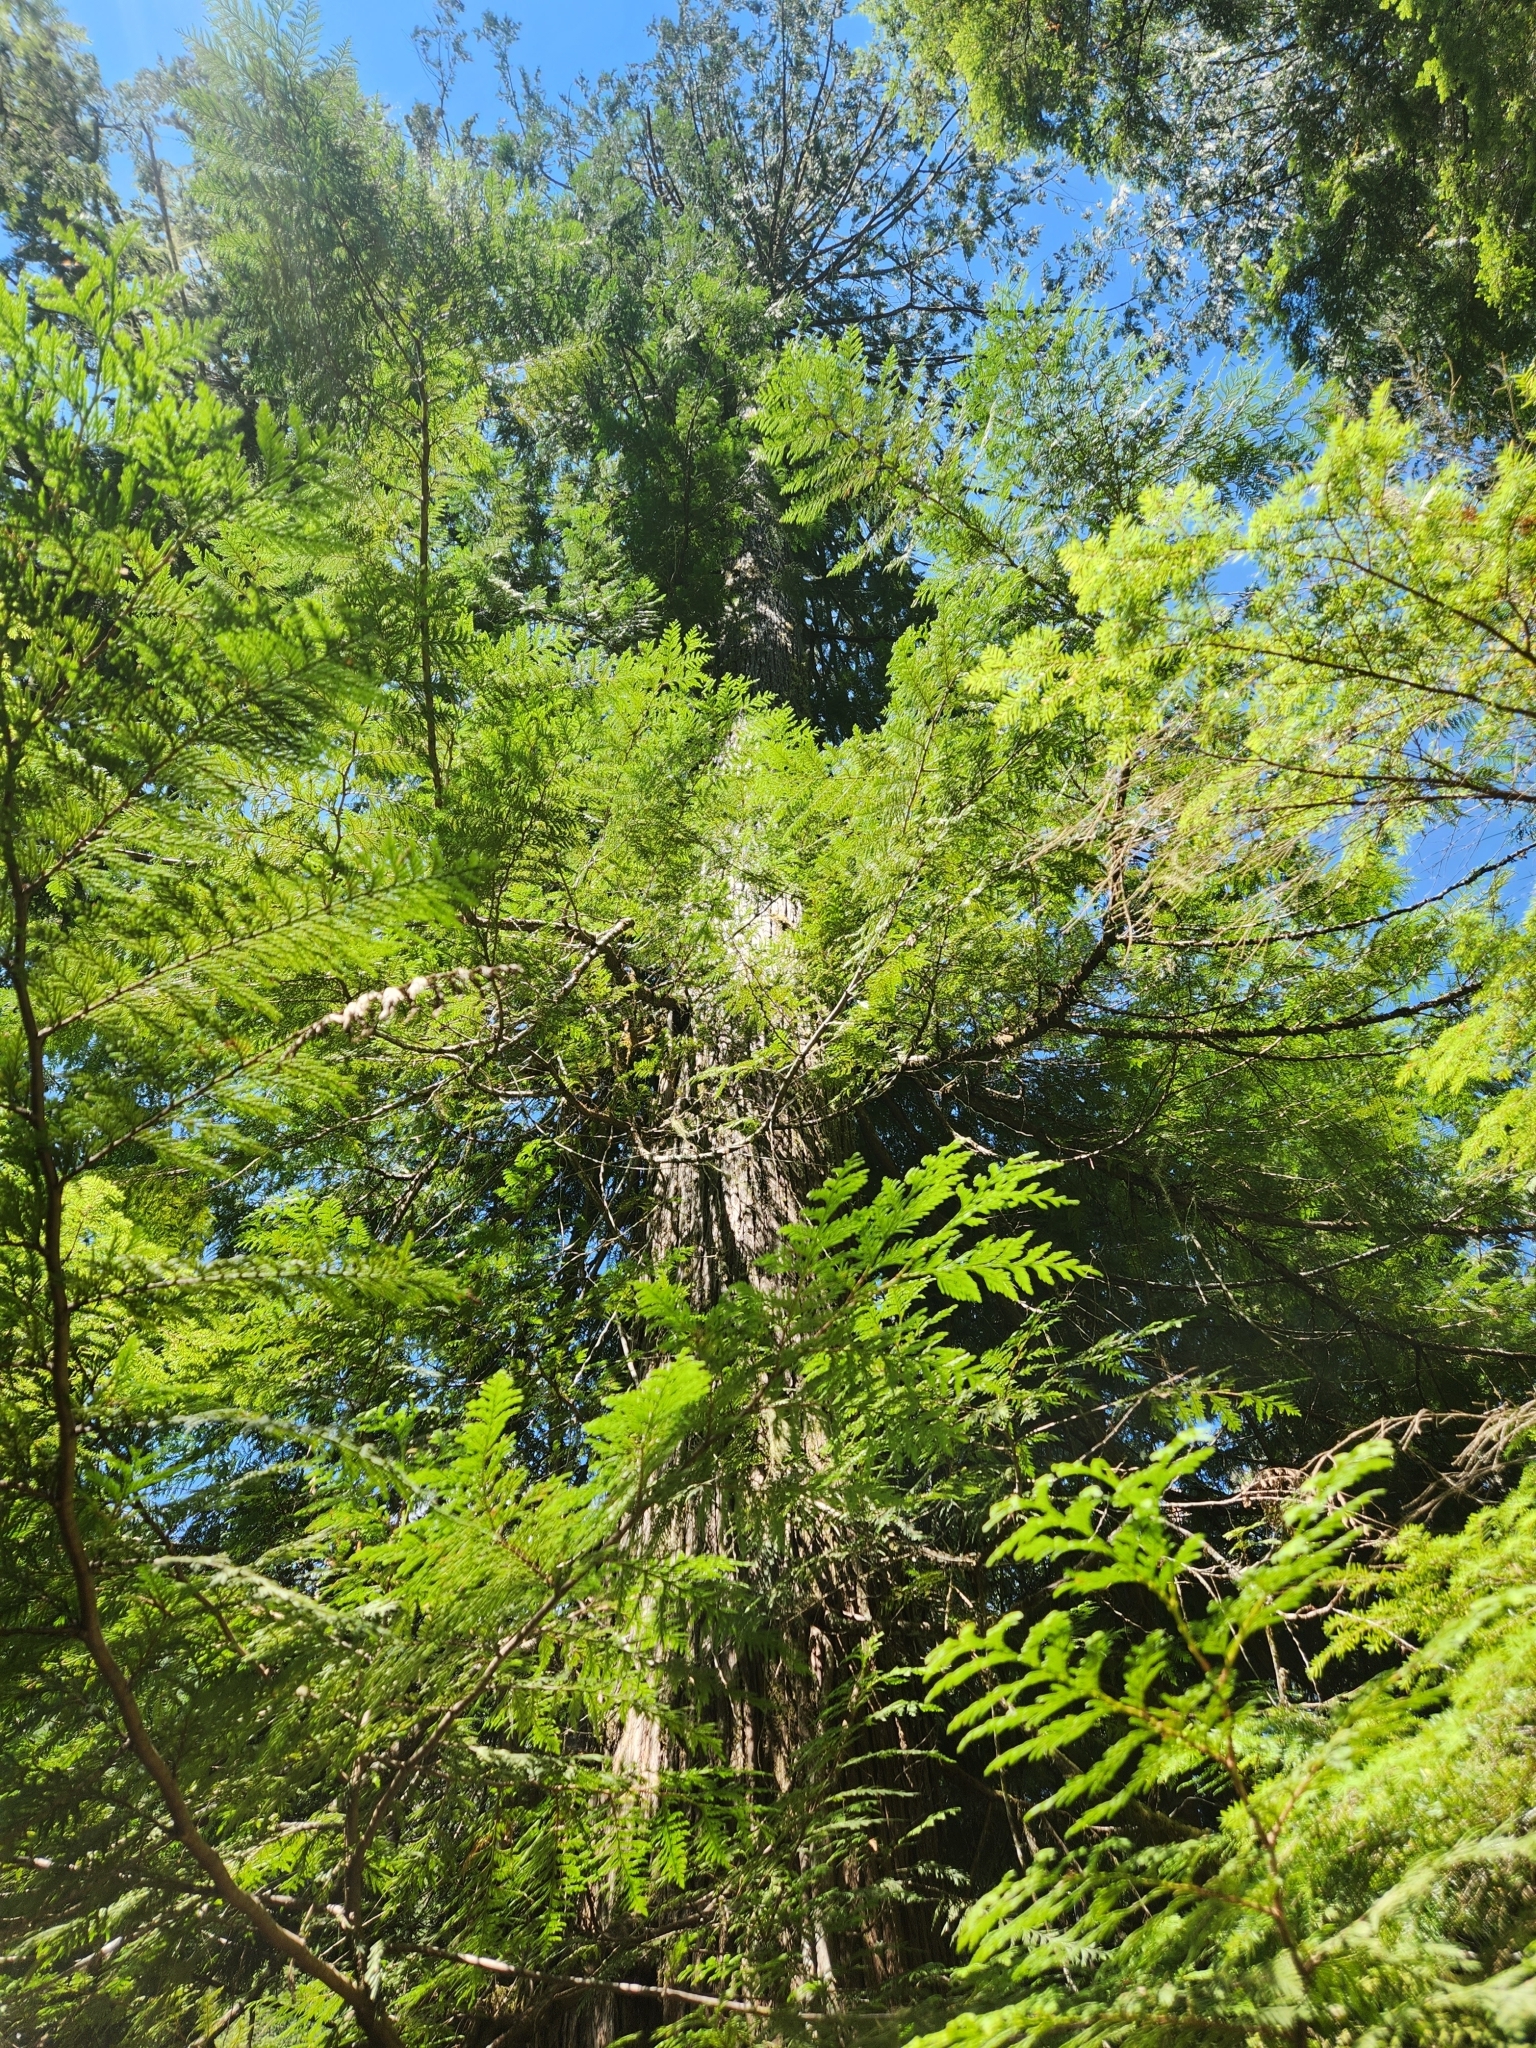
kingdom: Plantae
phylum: Tracheophyta
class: Pinopsida
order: Pinales
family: Cupressaceae
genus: Thuja
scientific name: Thuja plicata
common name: Western red-cedar
